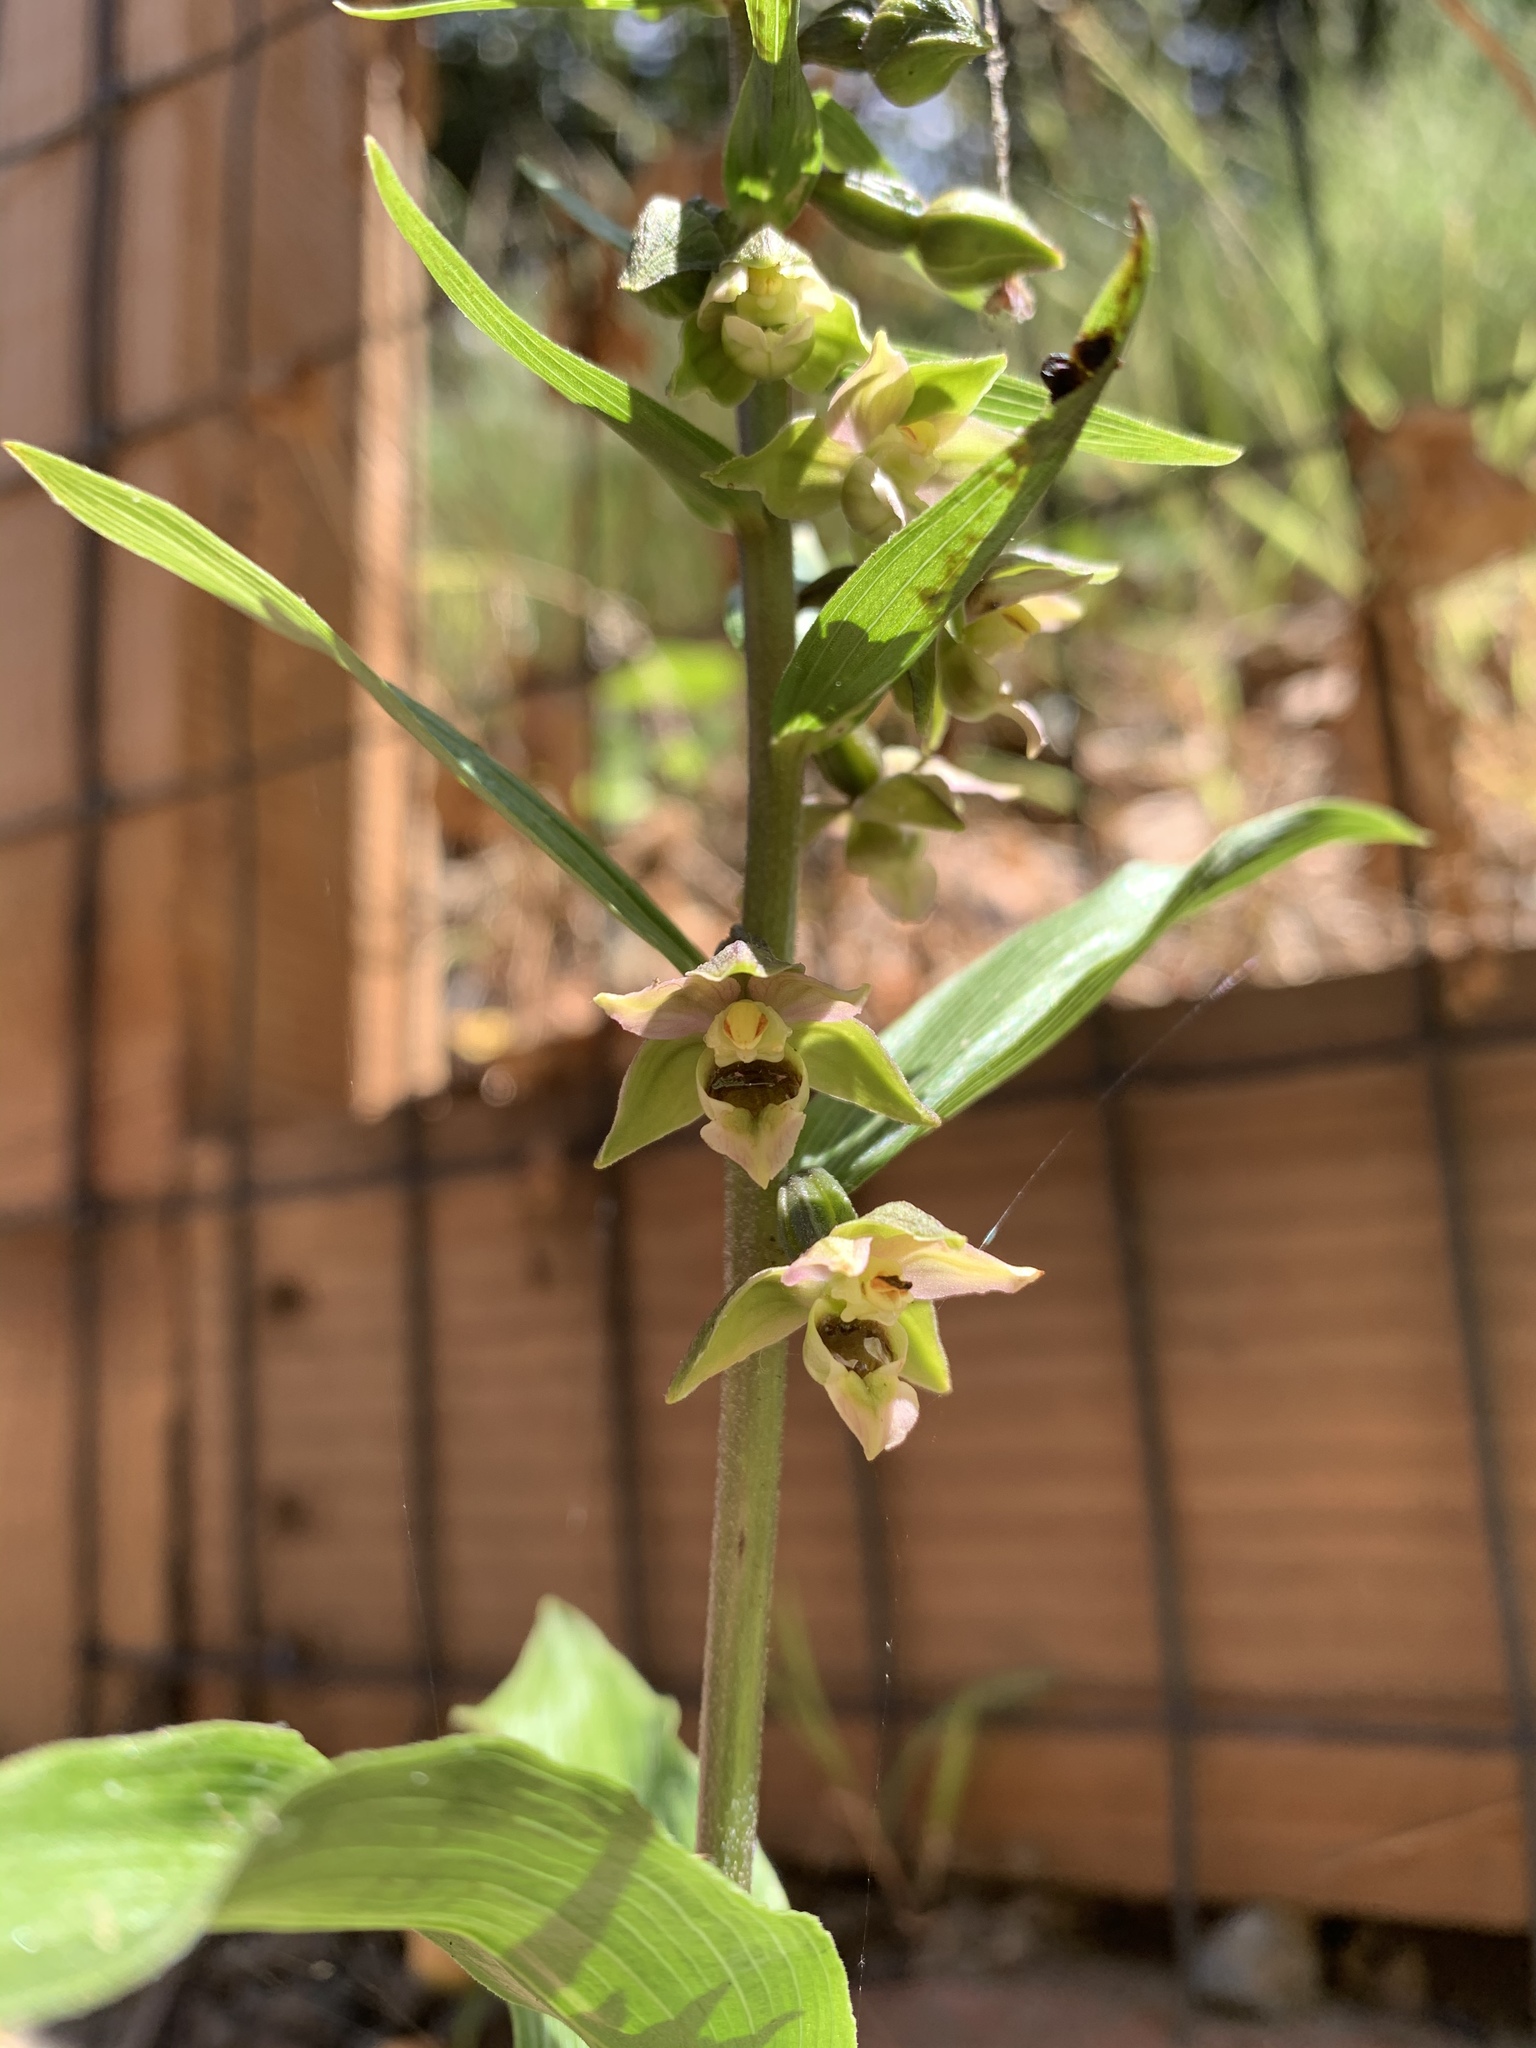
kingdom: Plantae
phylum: Tracheophyta
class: Liliopsida
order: Asparagales
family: Orchidaceae
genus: Epipactis
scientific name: Epipactis helleborine
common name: Broad-leaved helleborine
